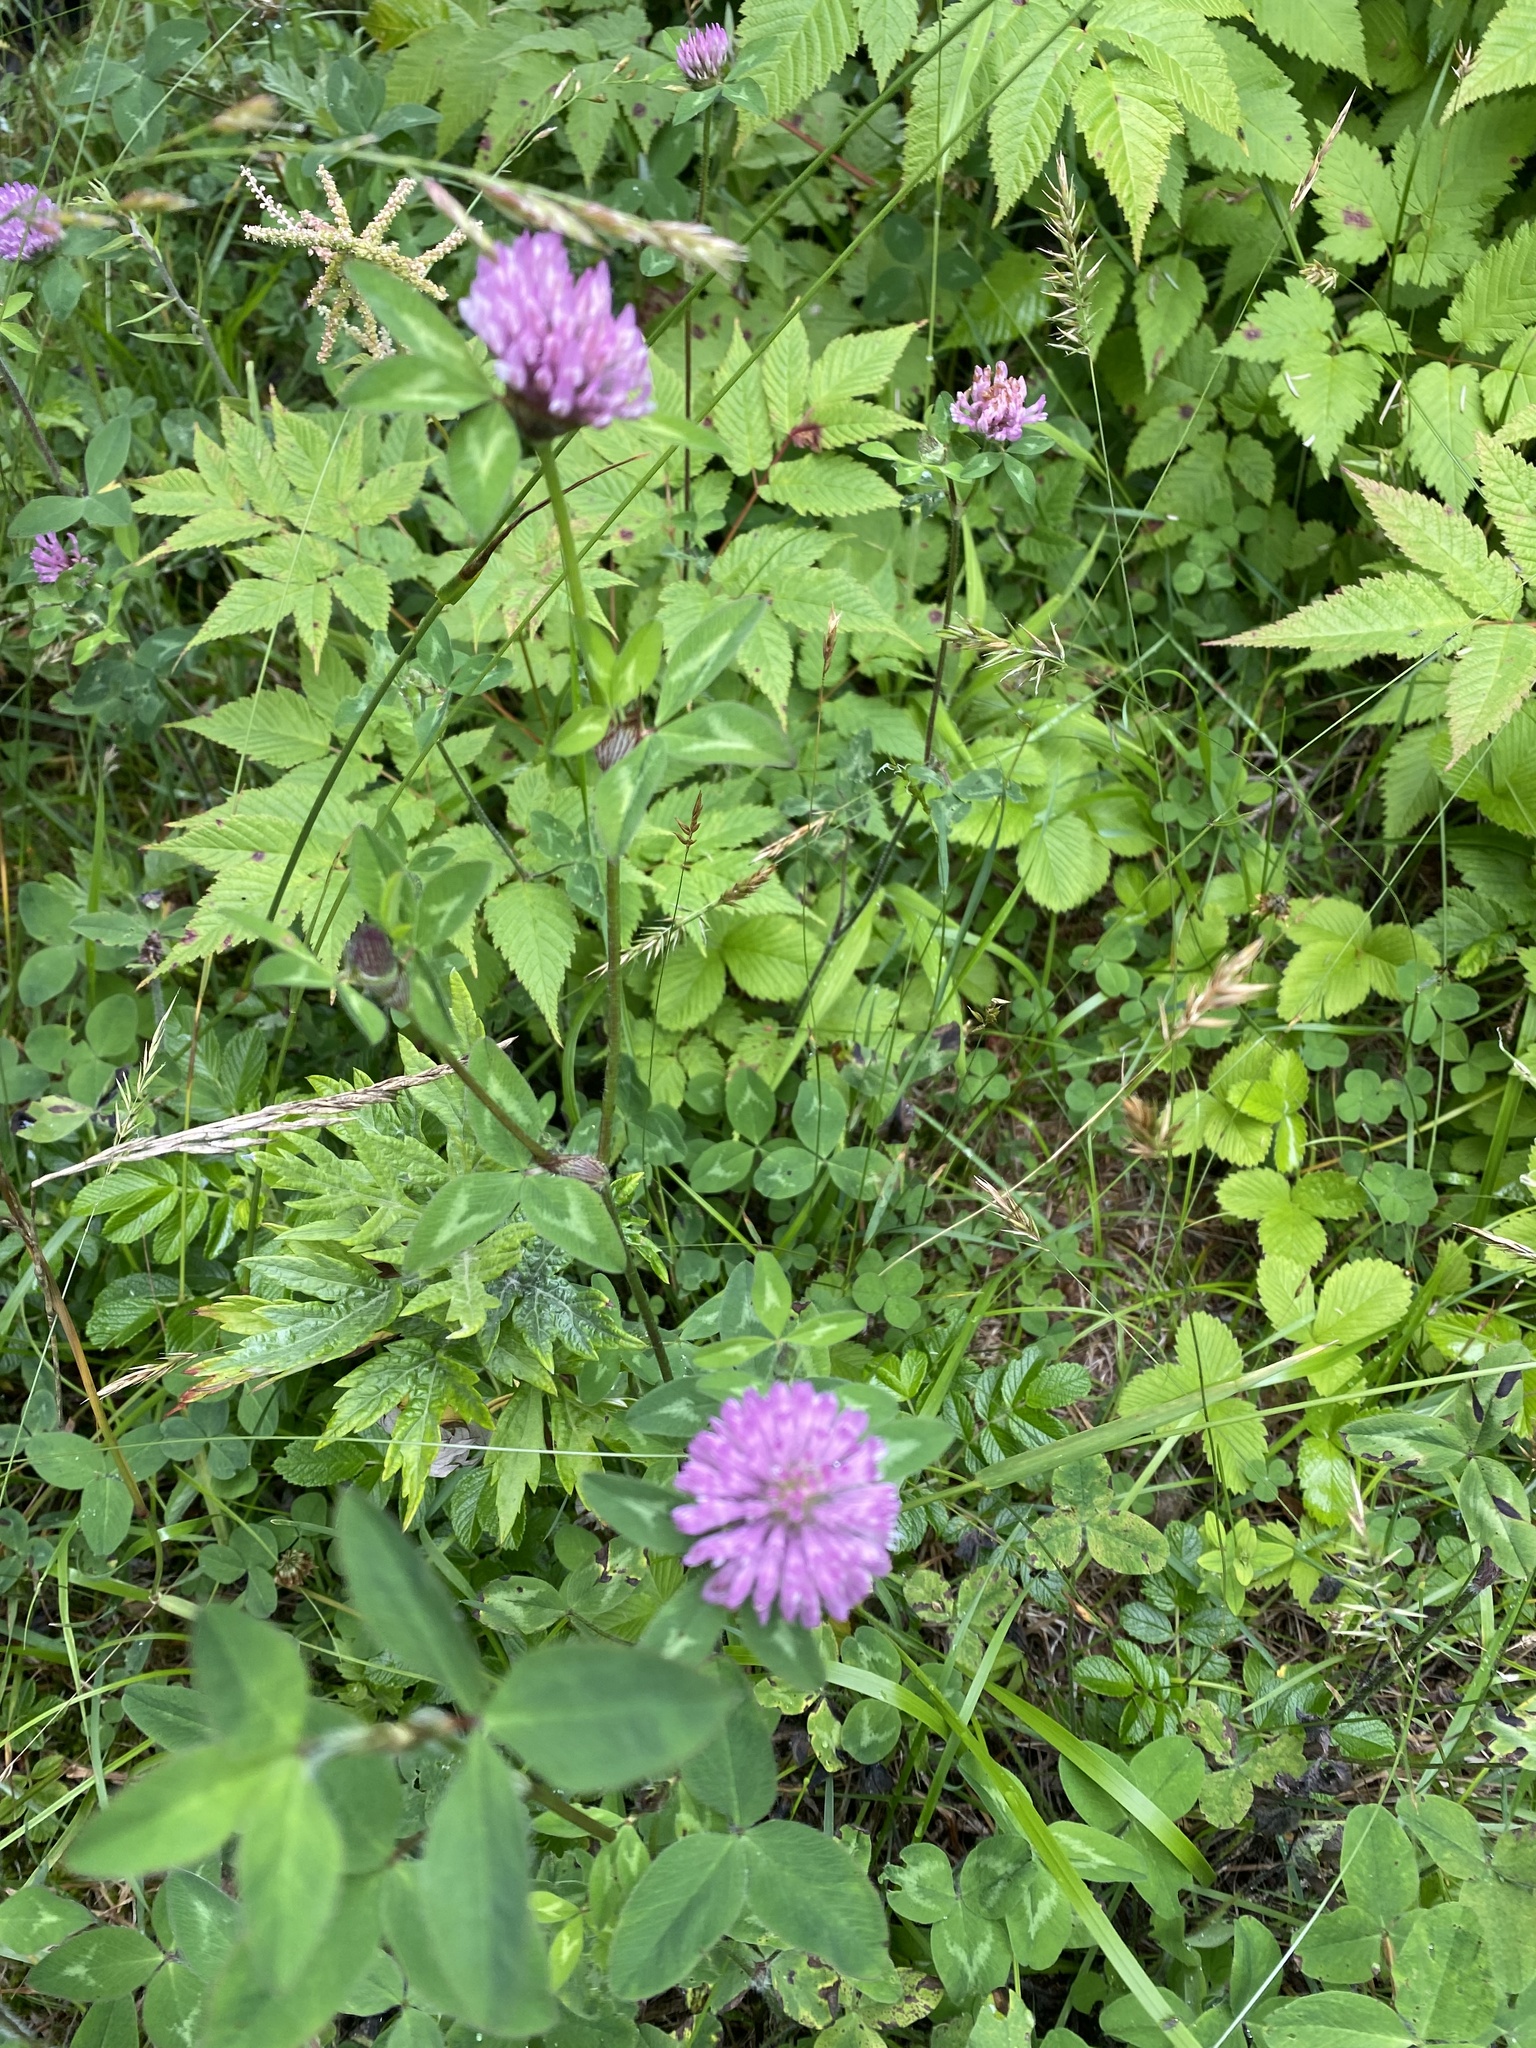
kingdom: Plantae
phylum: Tracheophyta
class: Magnoliopsida
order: Fabales
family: Fabaceae
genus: Trifolium
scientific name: Trifolium pratense
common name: Red clover
